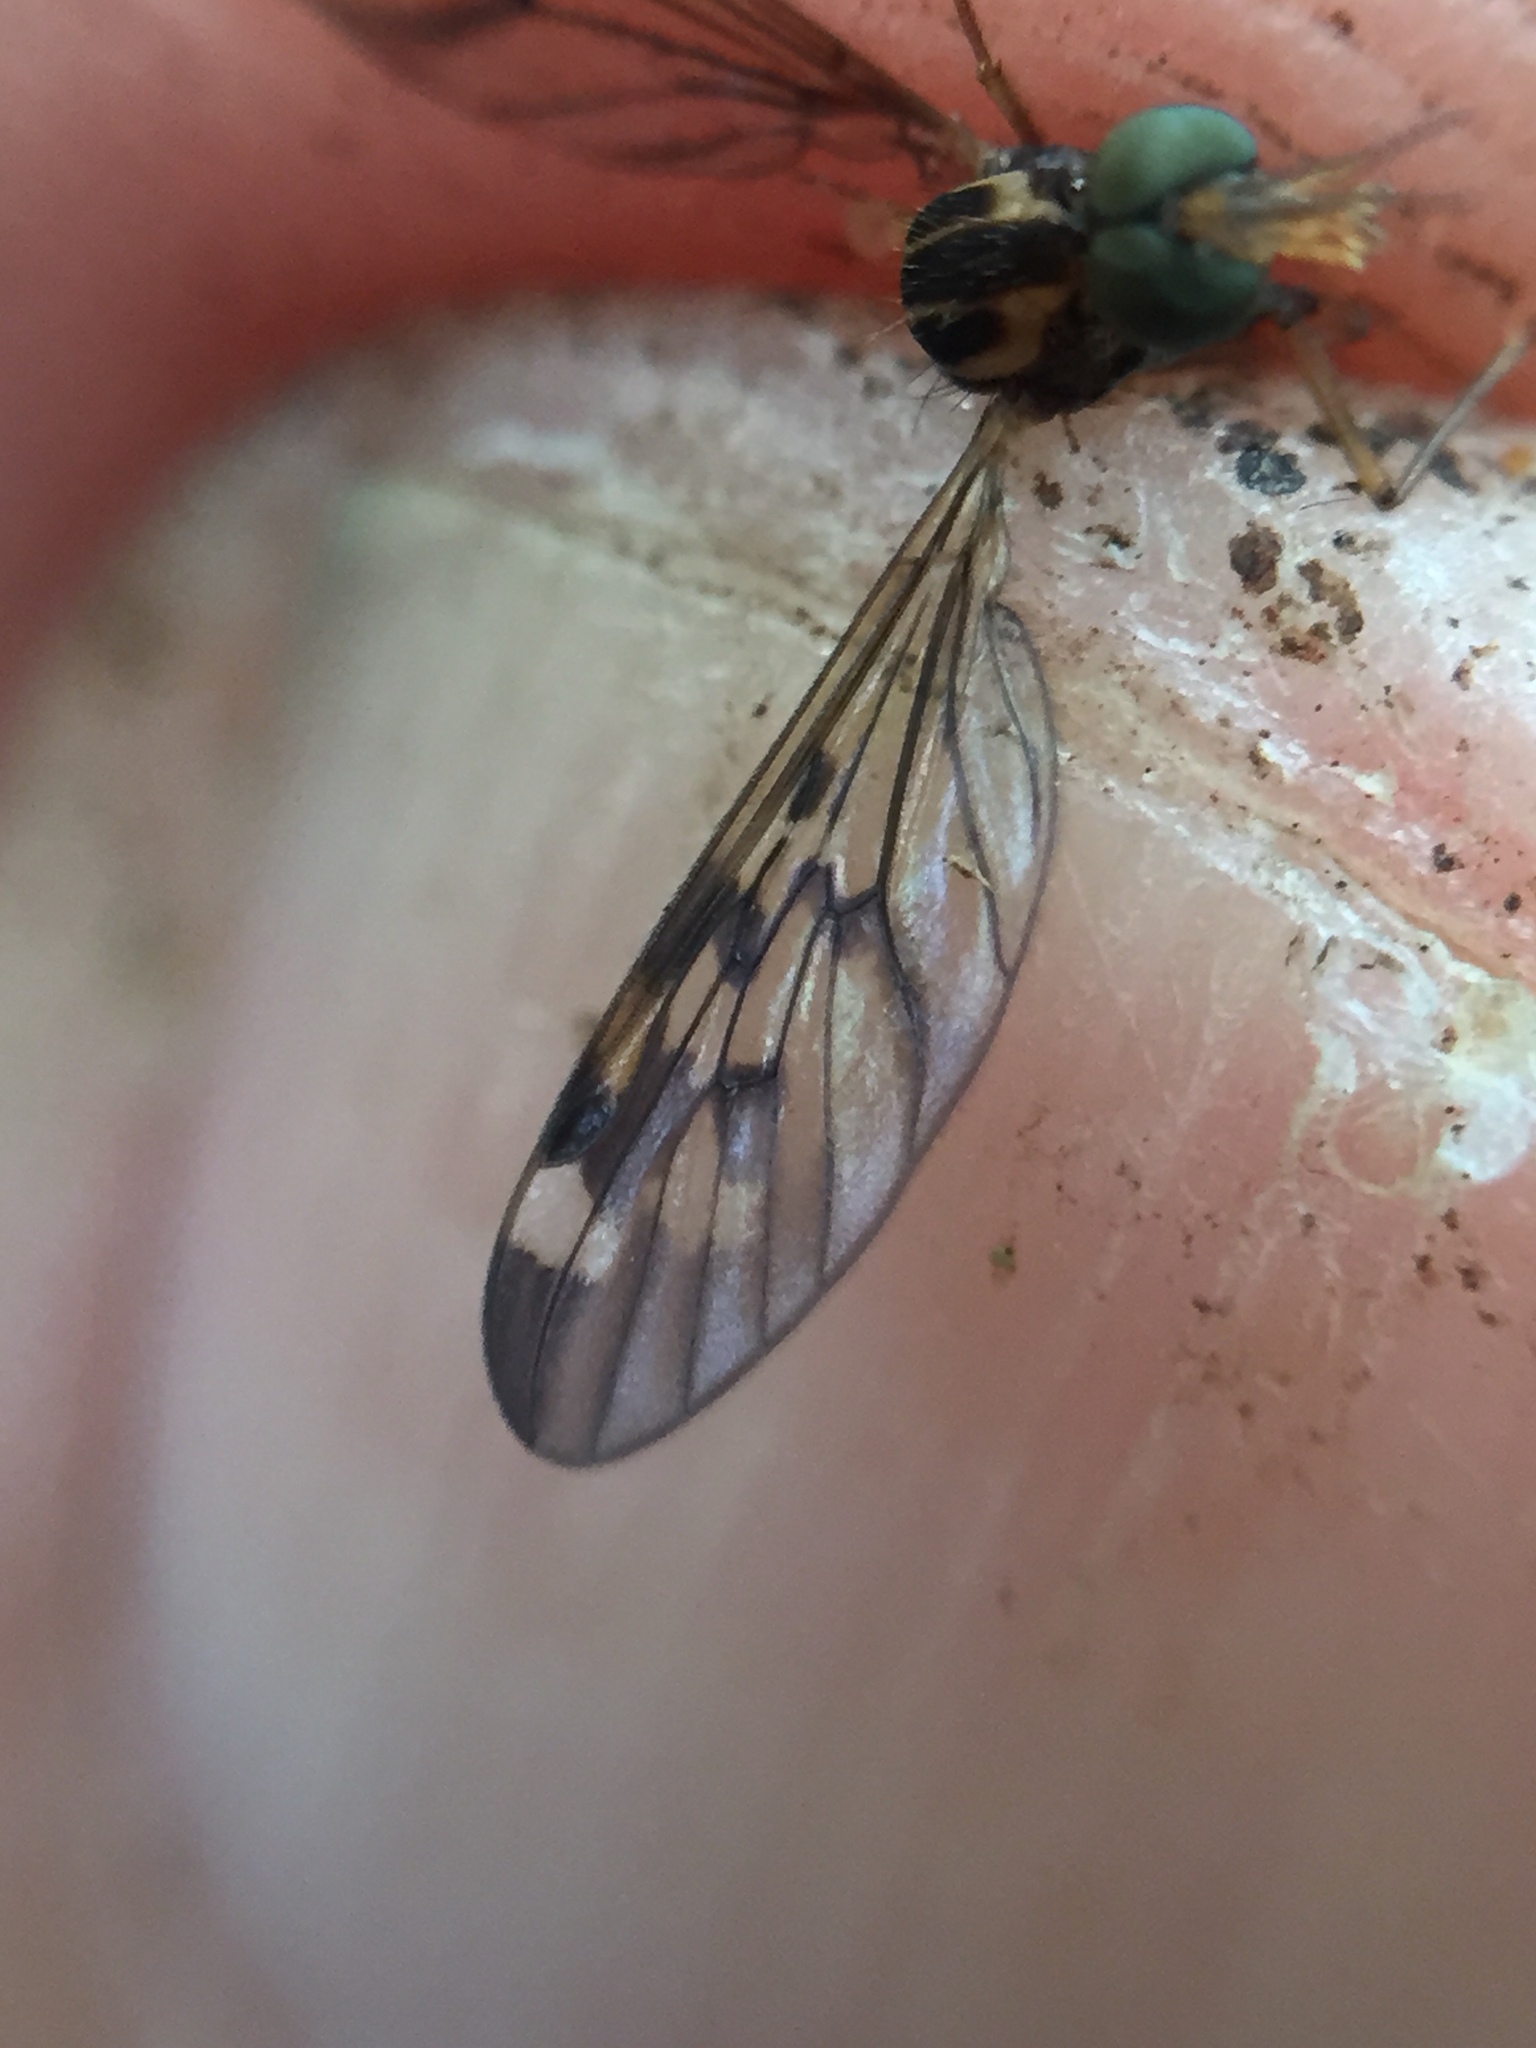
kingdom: Animalia
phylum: Arthropoda
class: Insecta
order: Diptera
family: Anisopodidae
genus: Sylvicola
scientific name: Sylvicola notatus
